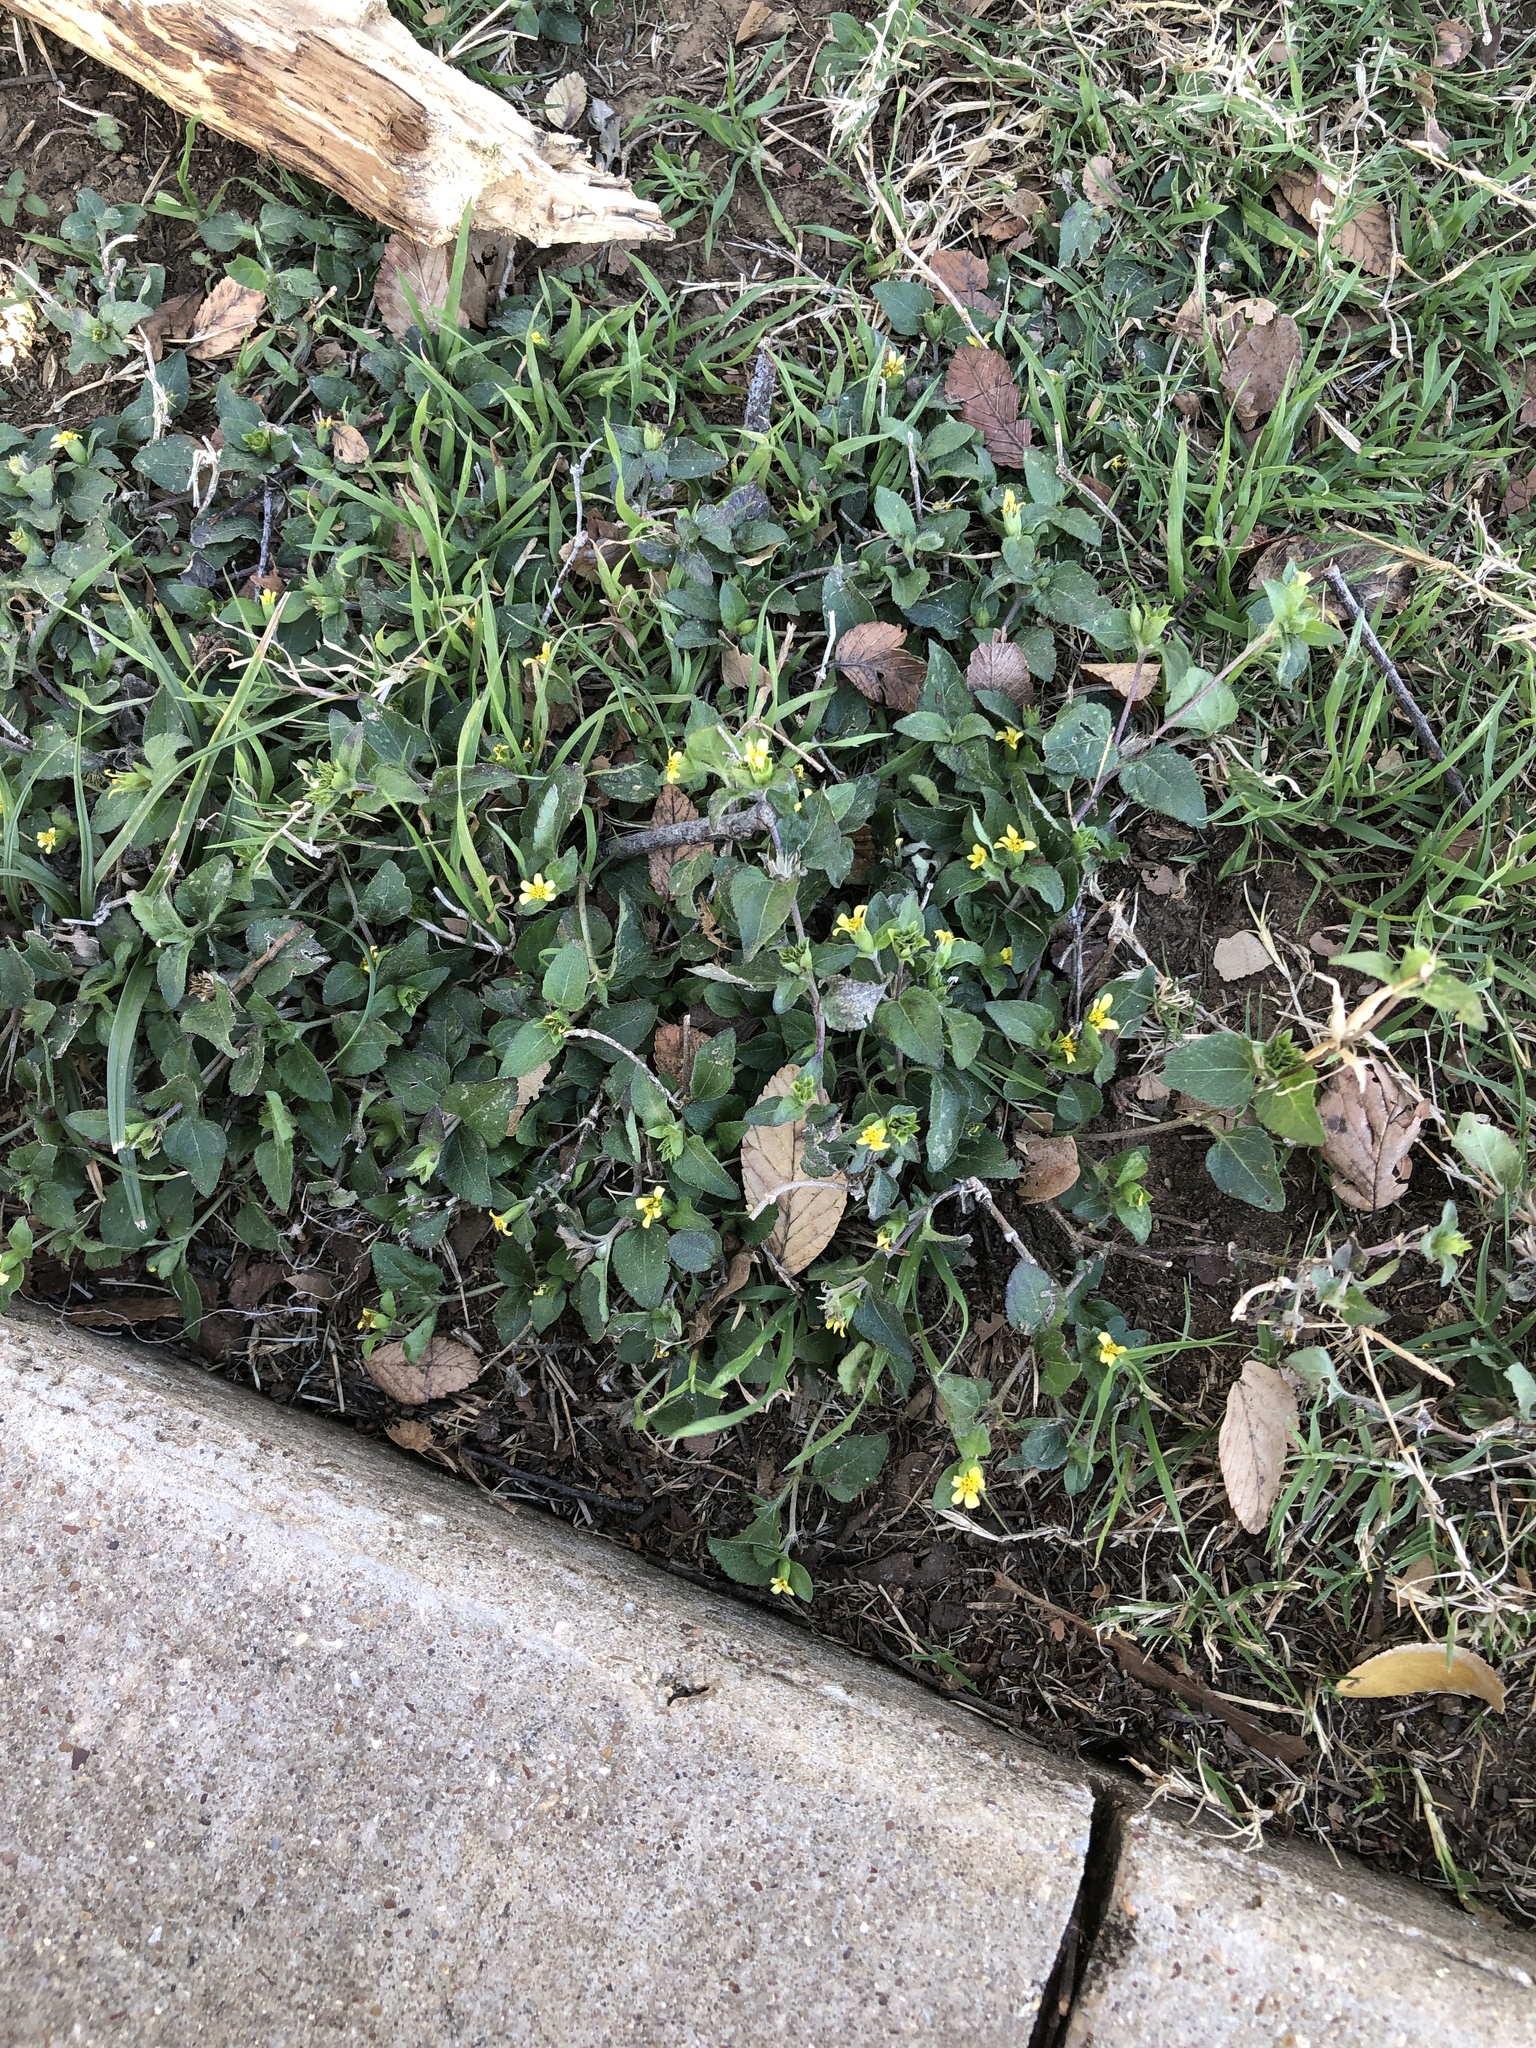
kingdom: Plantae
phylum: Tracheophyta
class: Magnoliopsida
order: Asterales
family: Asteraceae
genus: Calyptocarpus
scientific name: Calyptocarpus vialis
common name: Straggler daisy
